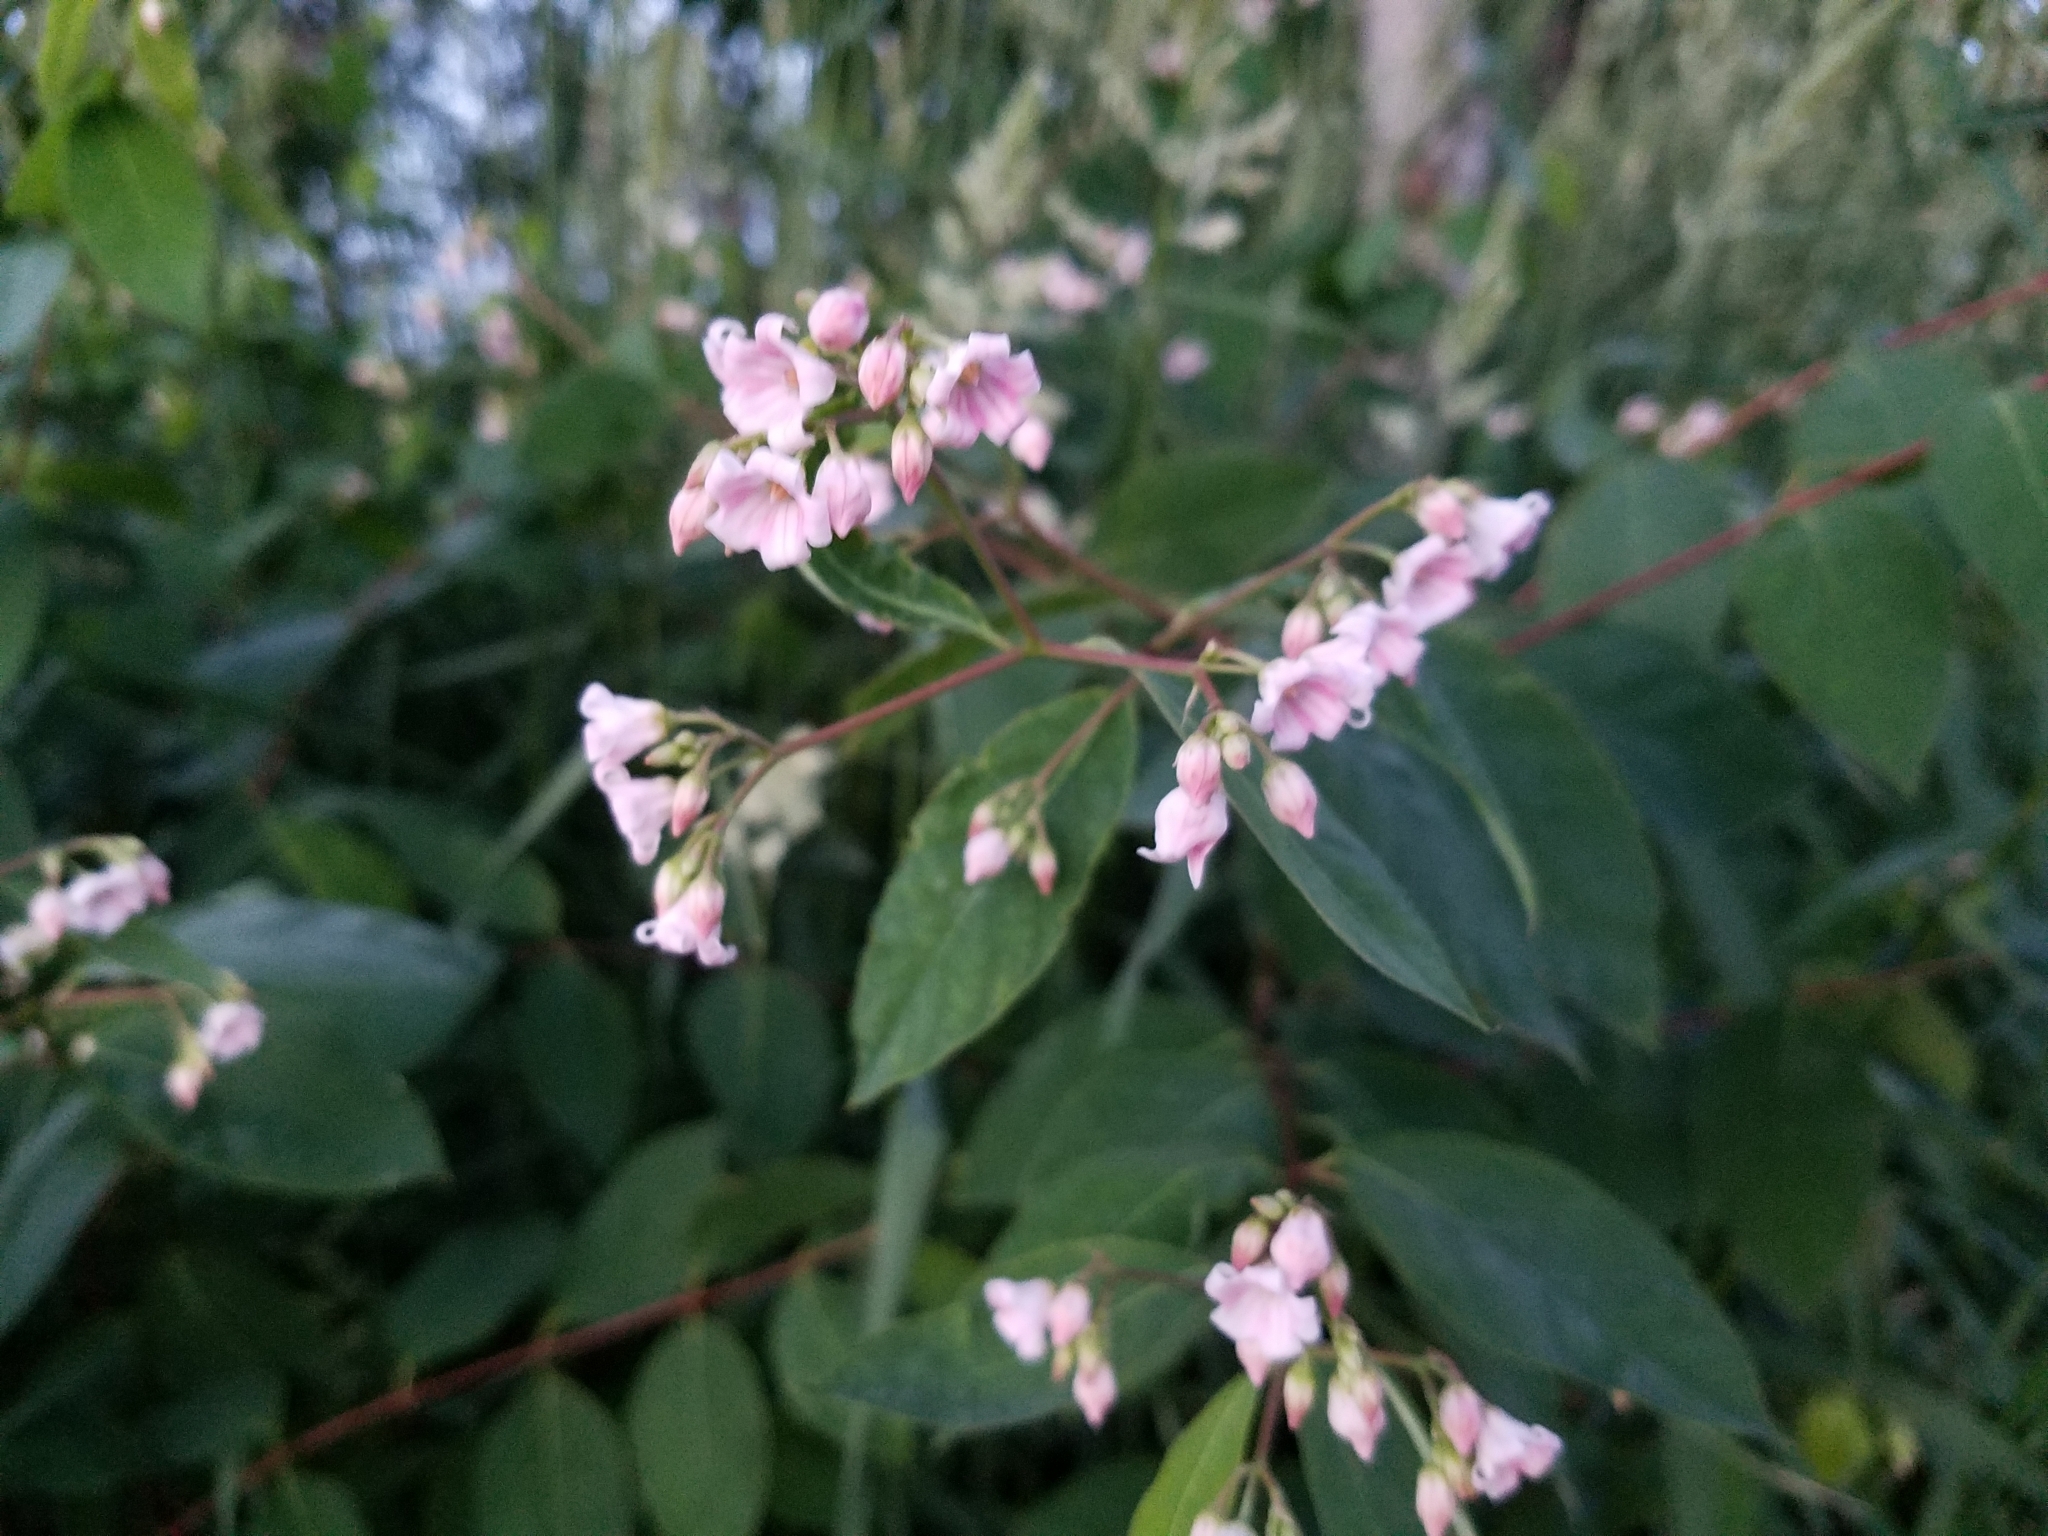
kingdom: Plantae
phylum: Tracheophyta
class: Magnoliopsida
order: Gentianales
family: Apocynaceae
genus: Apocynum
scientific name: Apocynum androsaemifolium
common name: Spreading dogbane
